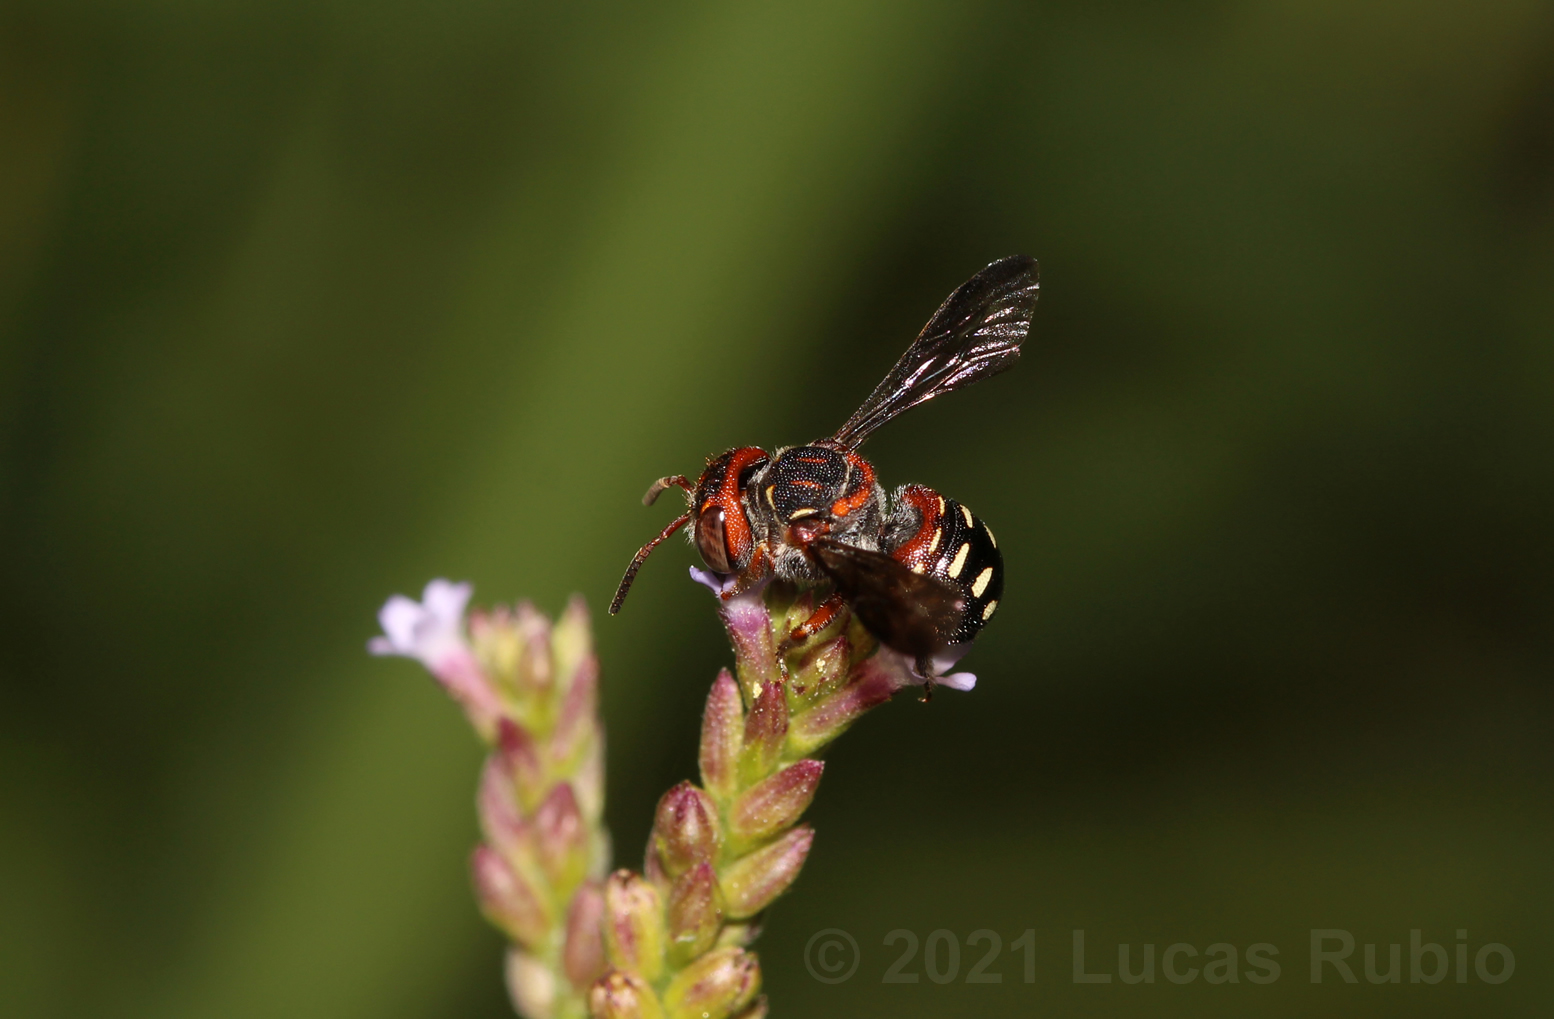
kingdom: Animalia
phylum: Arthropoda
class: Insecta
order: Hymenoptera
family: Megachilidae
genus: Epanthidium
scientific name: Epanthidium bicoloratum
